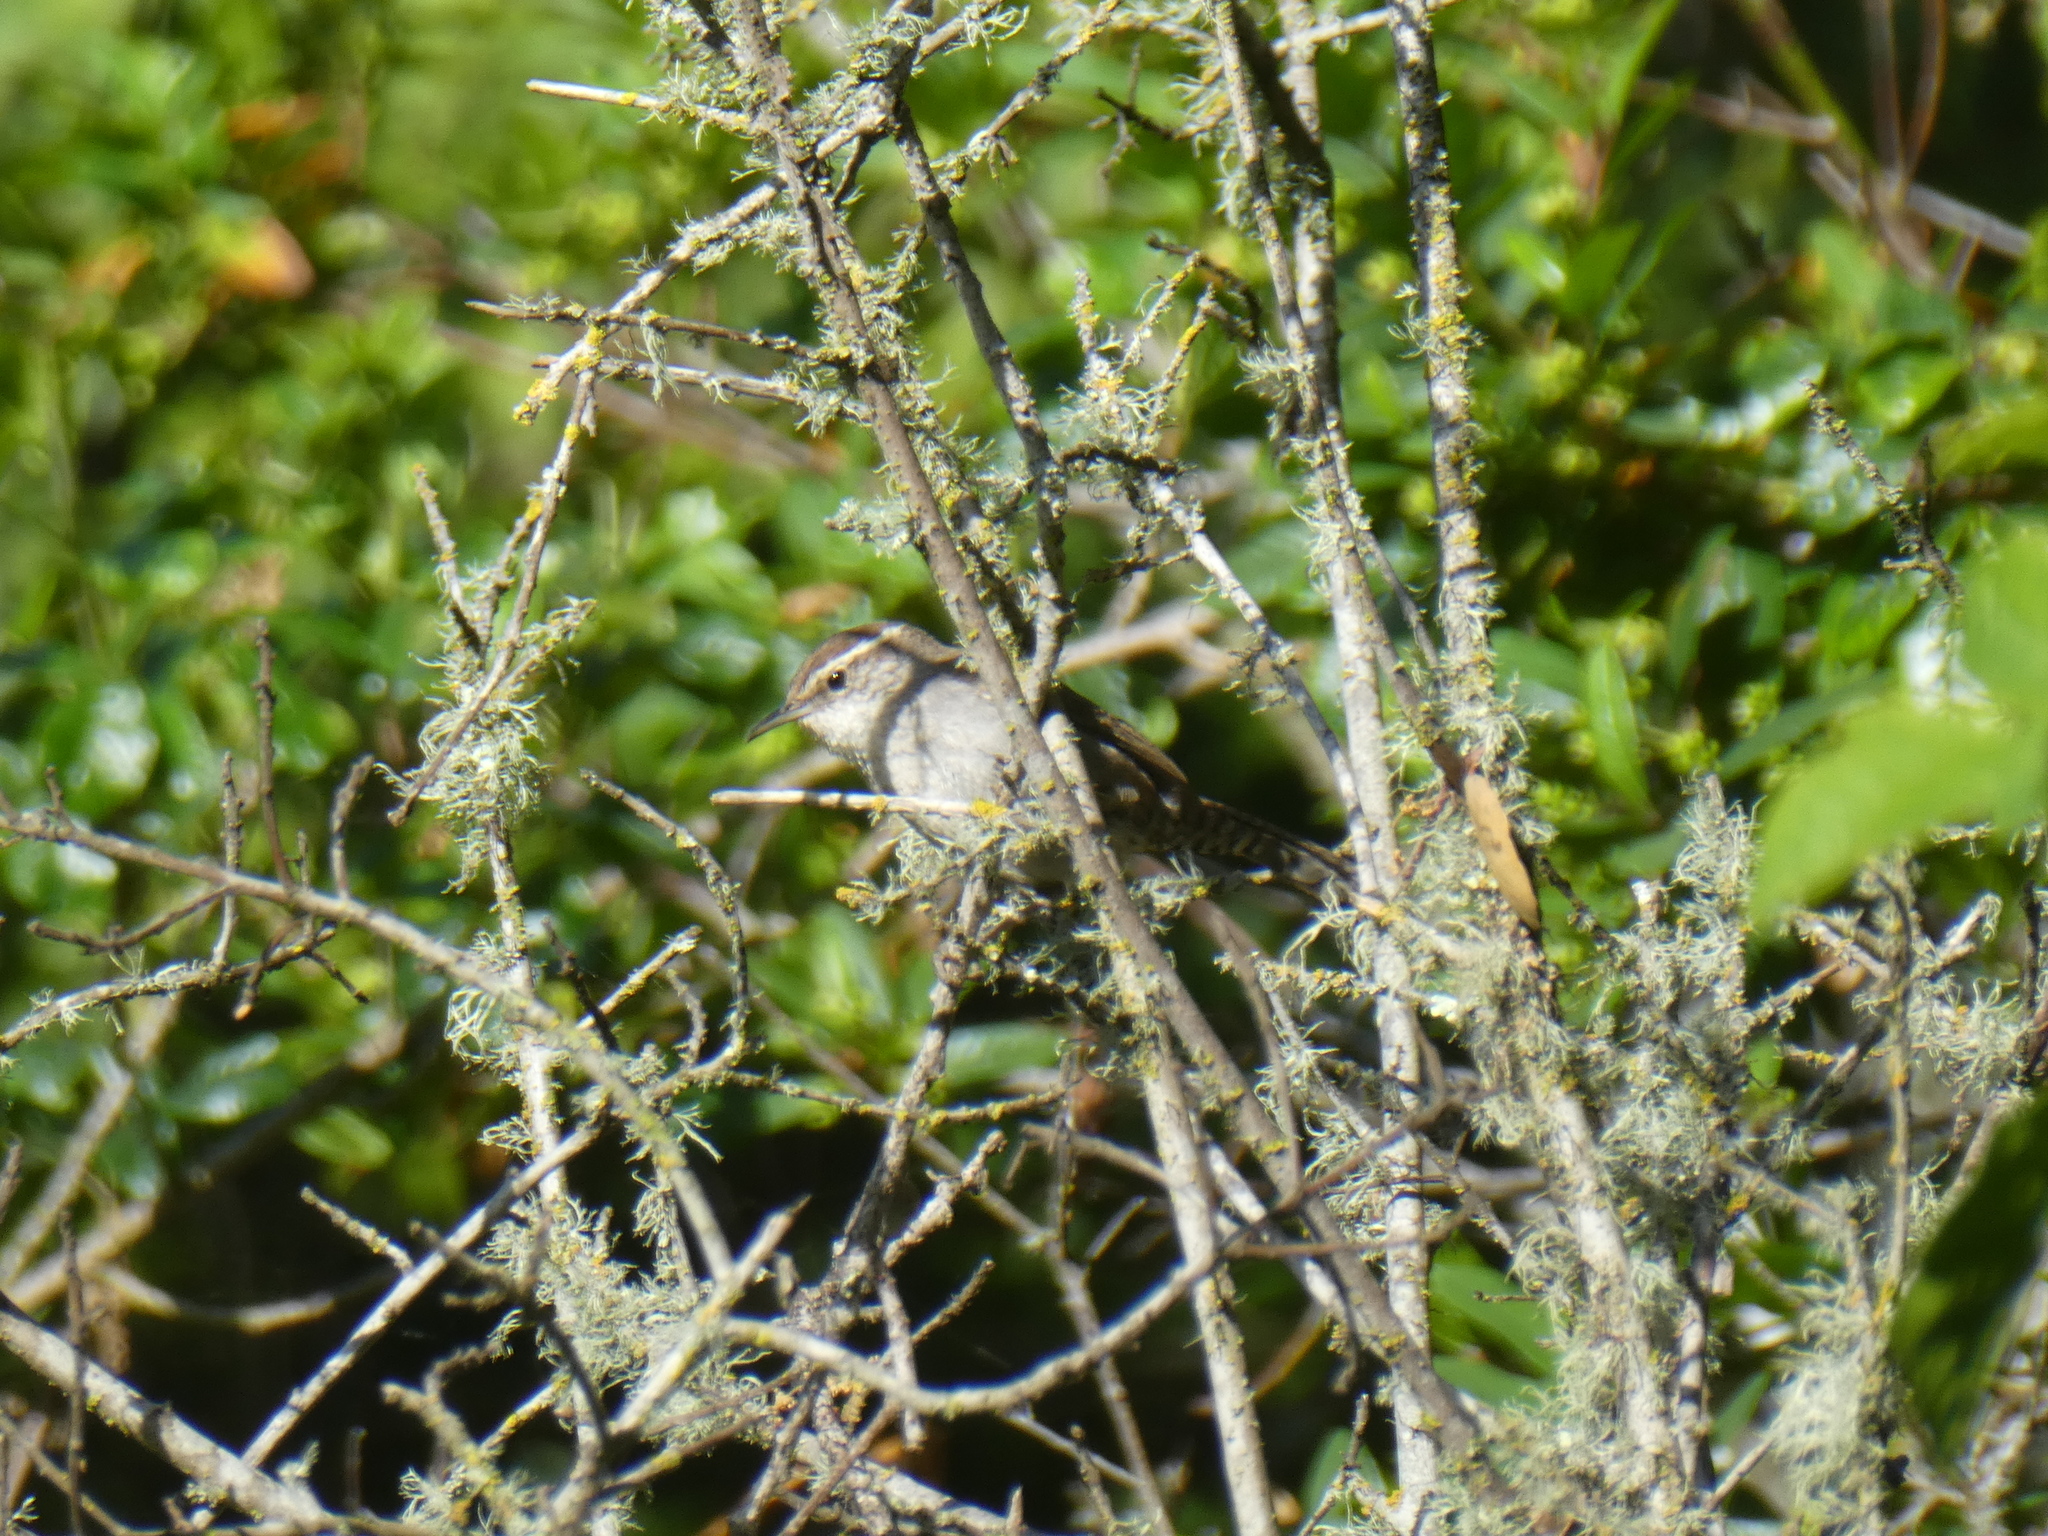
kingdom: Animalia
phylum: Chordata
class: Aves
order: Passeriformes
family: Troglodytidae
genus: Thryomanes
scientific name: Thryomanes bewickii
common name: Bewick's wren
